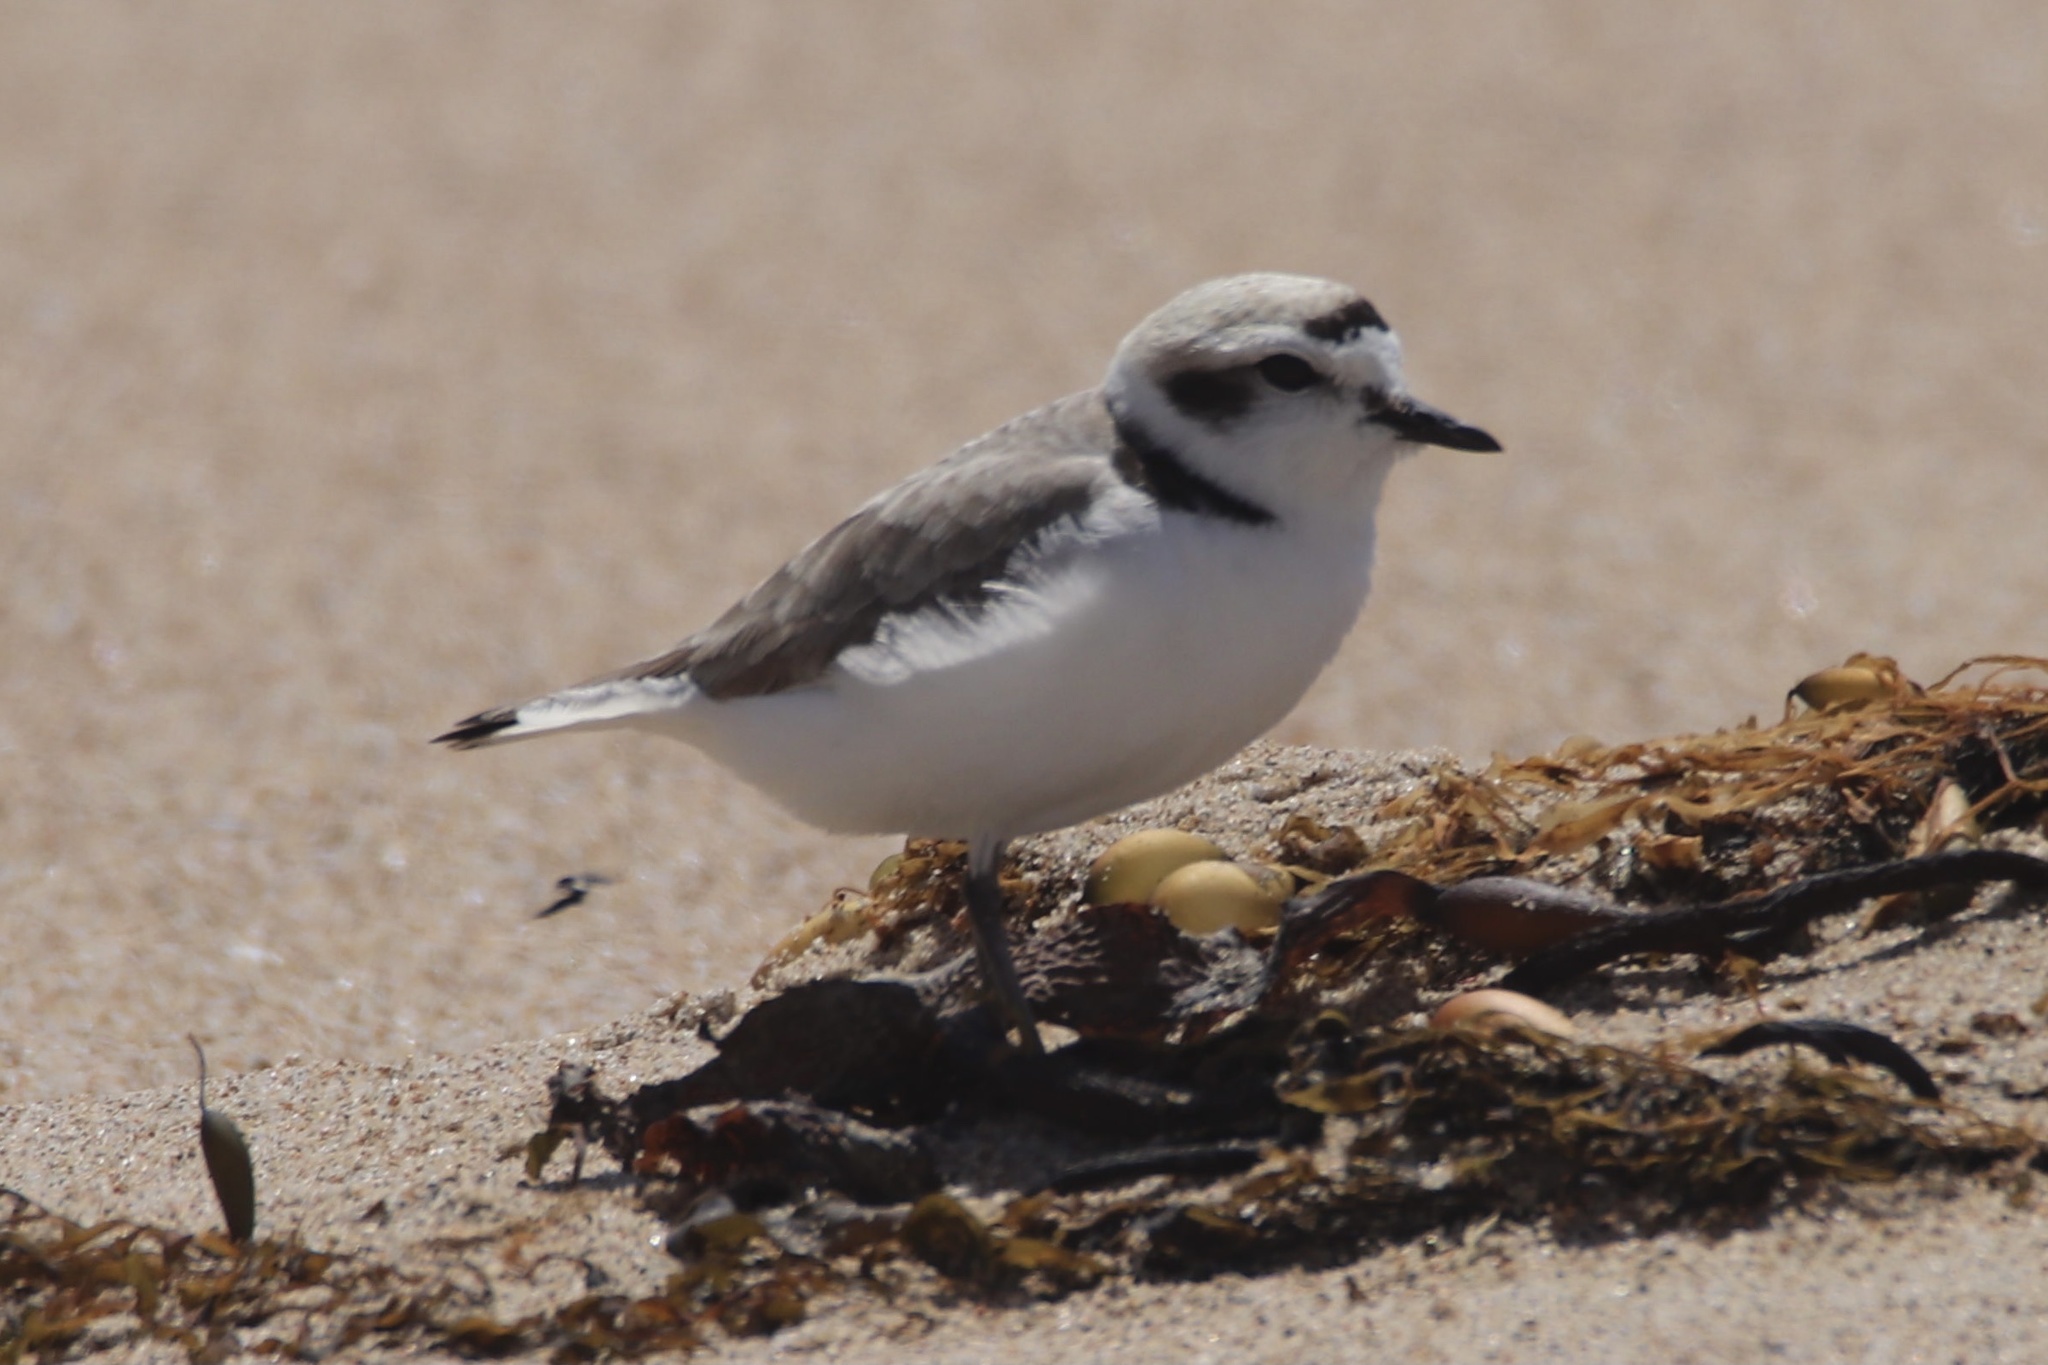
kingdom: Animalia
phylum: Chordata
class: Aves
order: Charadriiformes
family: Charadriidae
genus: Anarhynchus
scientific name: Anarhynchus
